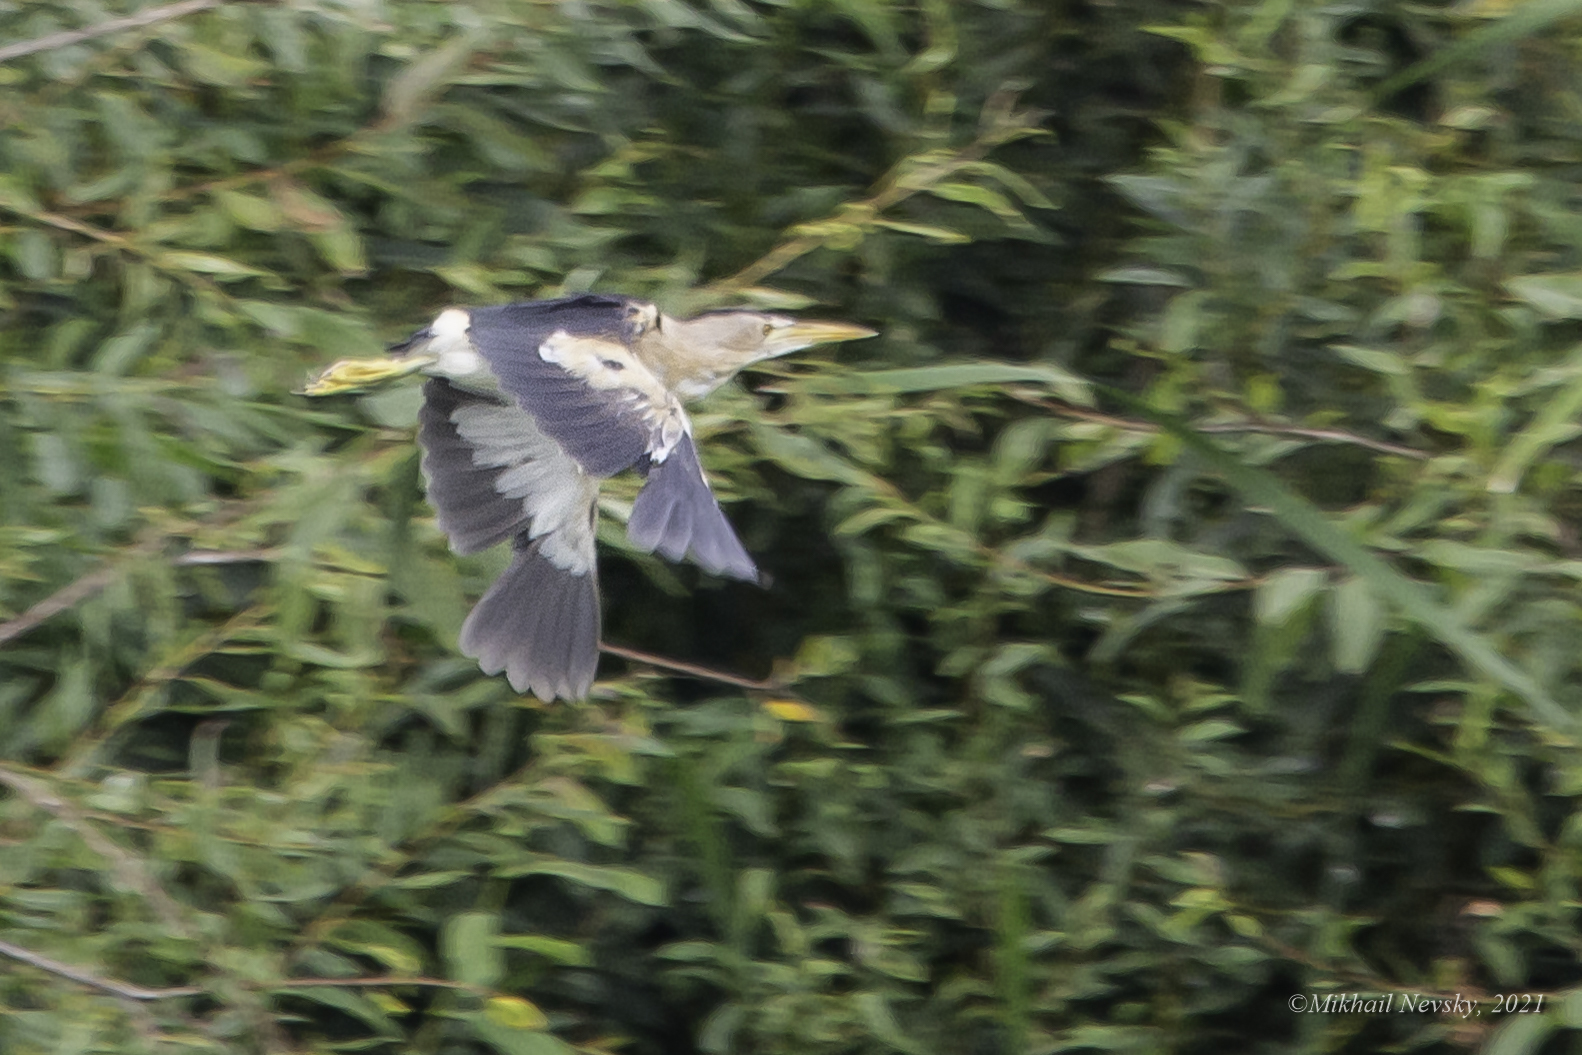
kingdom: Animalia
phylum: Chordata
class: Aves
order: Pelecaniformes
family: Ardeidae
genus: Ixobrychus
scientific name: Ixobrychus minutus
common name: Little bittern
